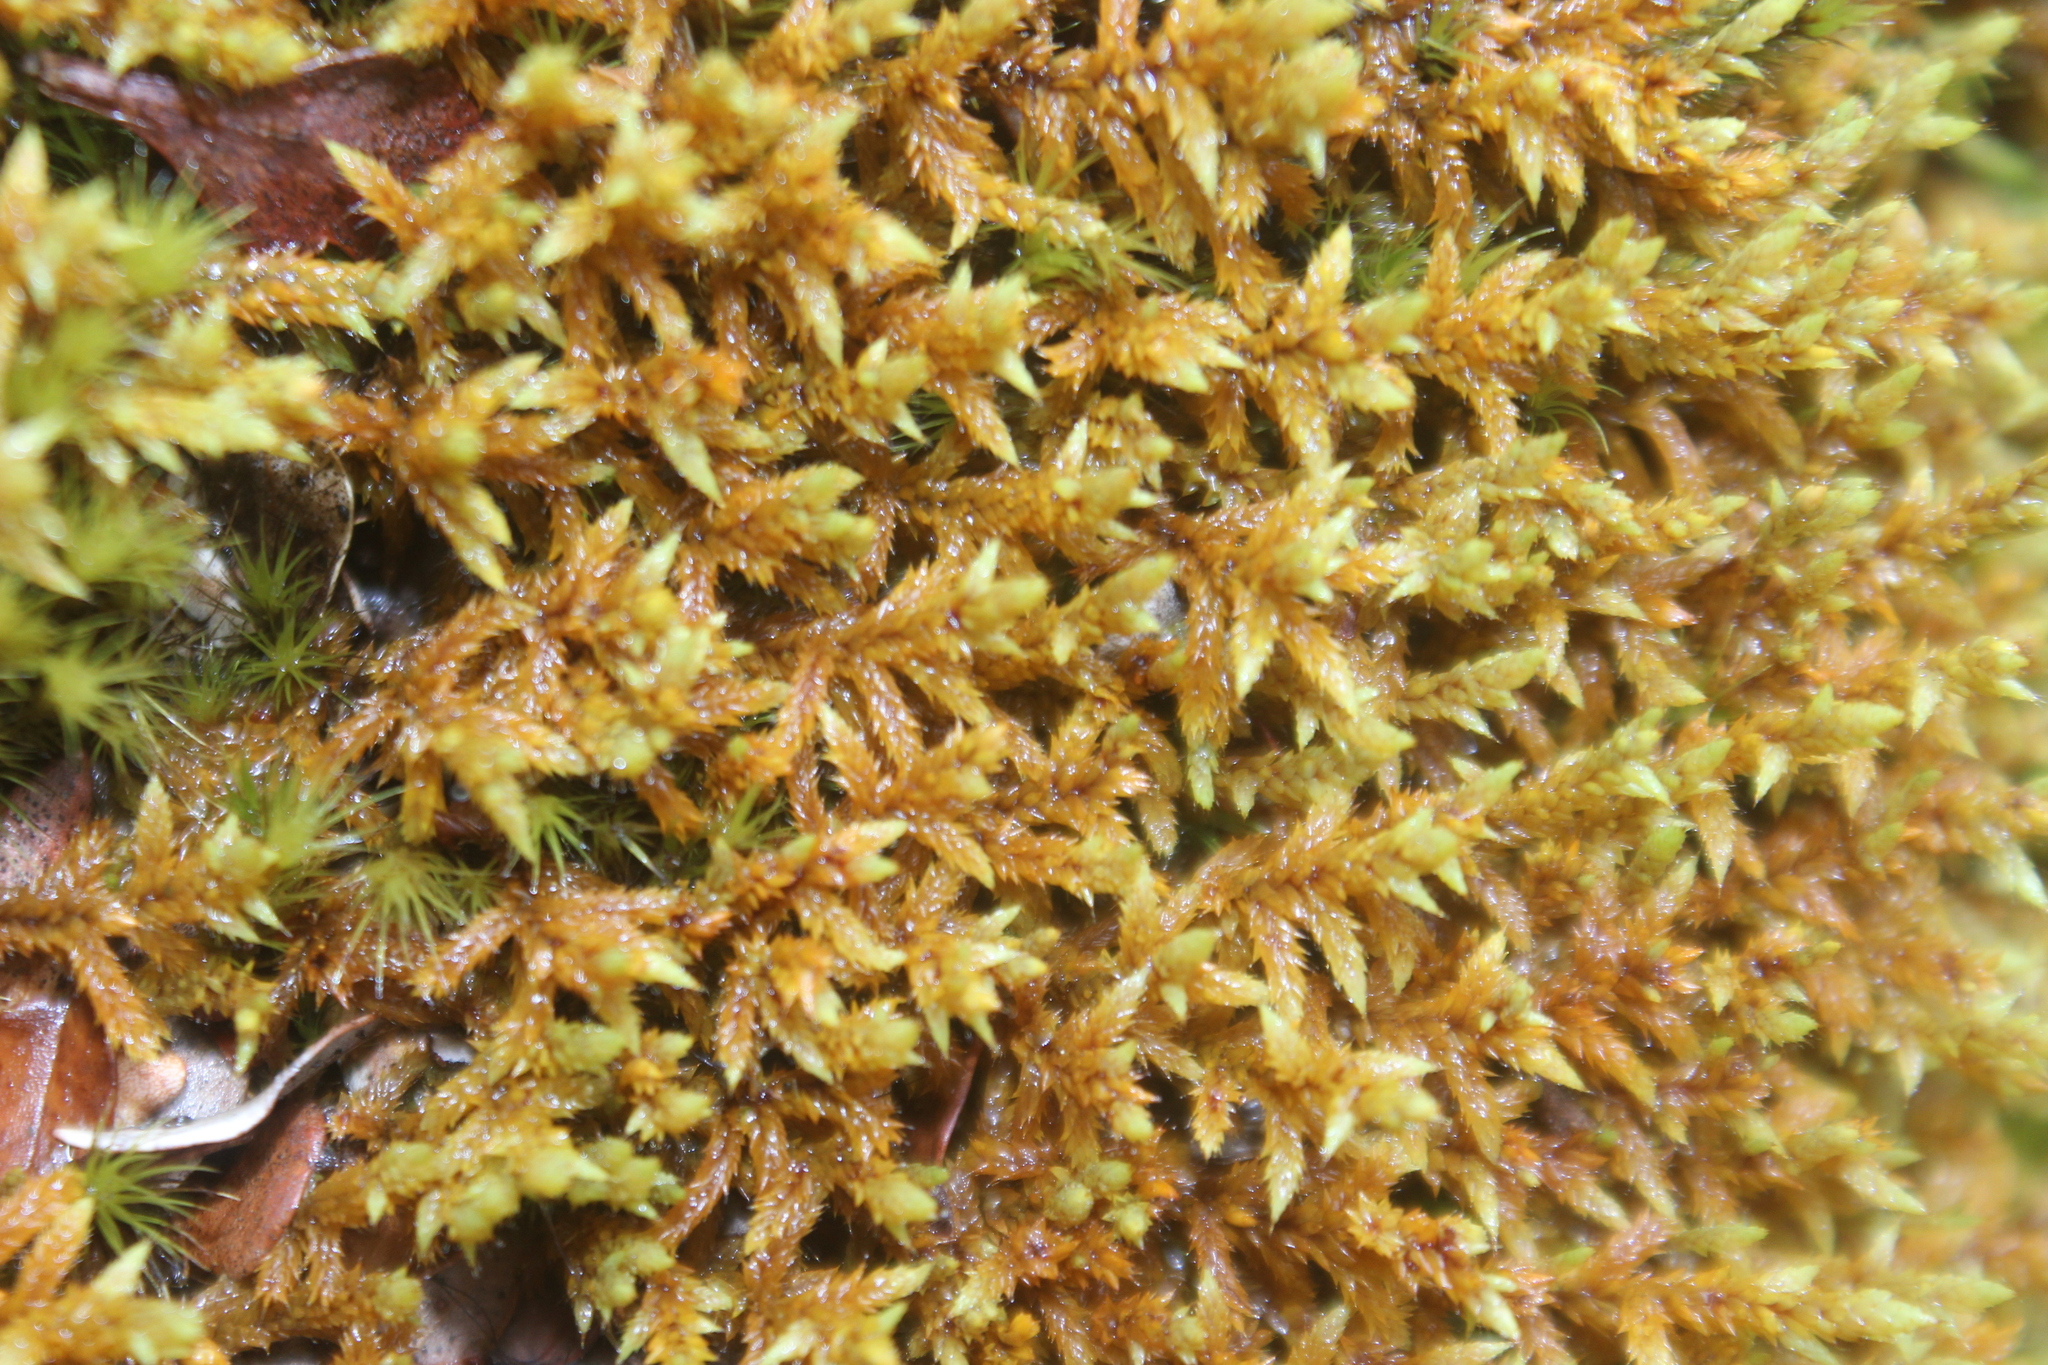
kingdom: Plantae
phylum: Bryophyta
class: Bryopsida
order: Hedwigiales
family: Hedwigiaceae
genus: Rhacocarpus
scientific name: Rhacocarpus purpurascens
